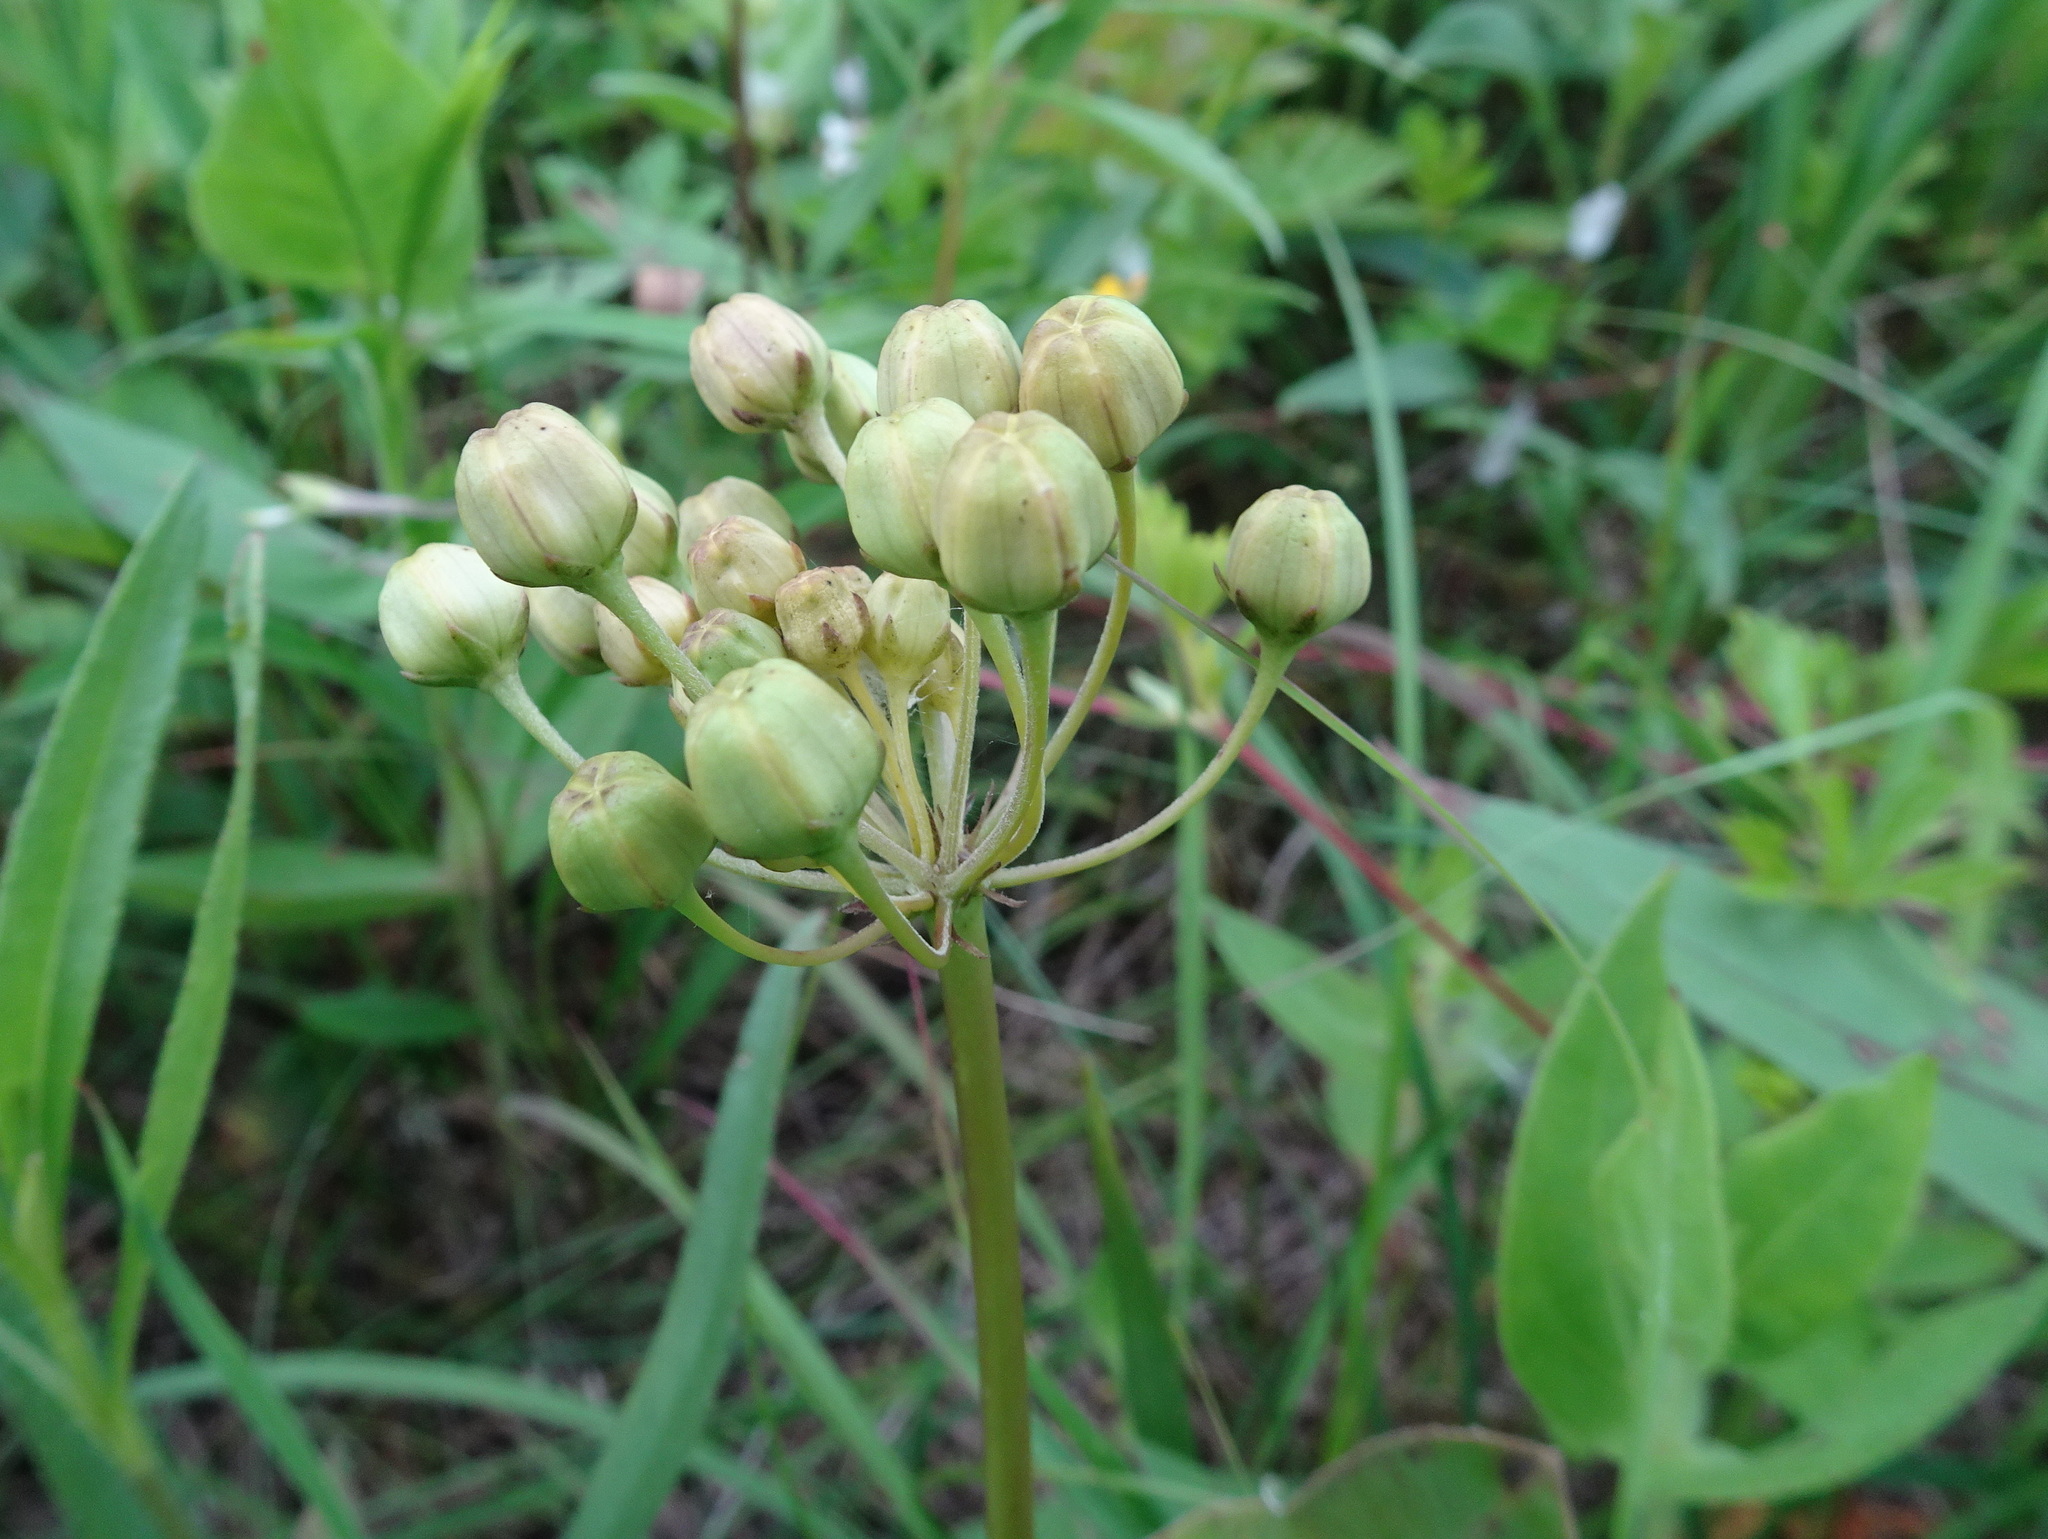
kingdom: Plantae
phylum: Tracheophyta
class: Magnoliopsida
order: Gentianales
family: Apocynaceae
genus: Asclepias
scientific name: Asclepias amplexicaulis
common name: Blunt-leaf milkweed
